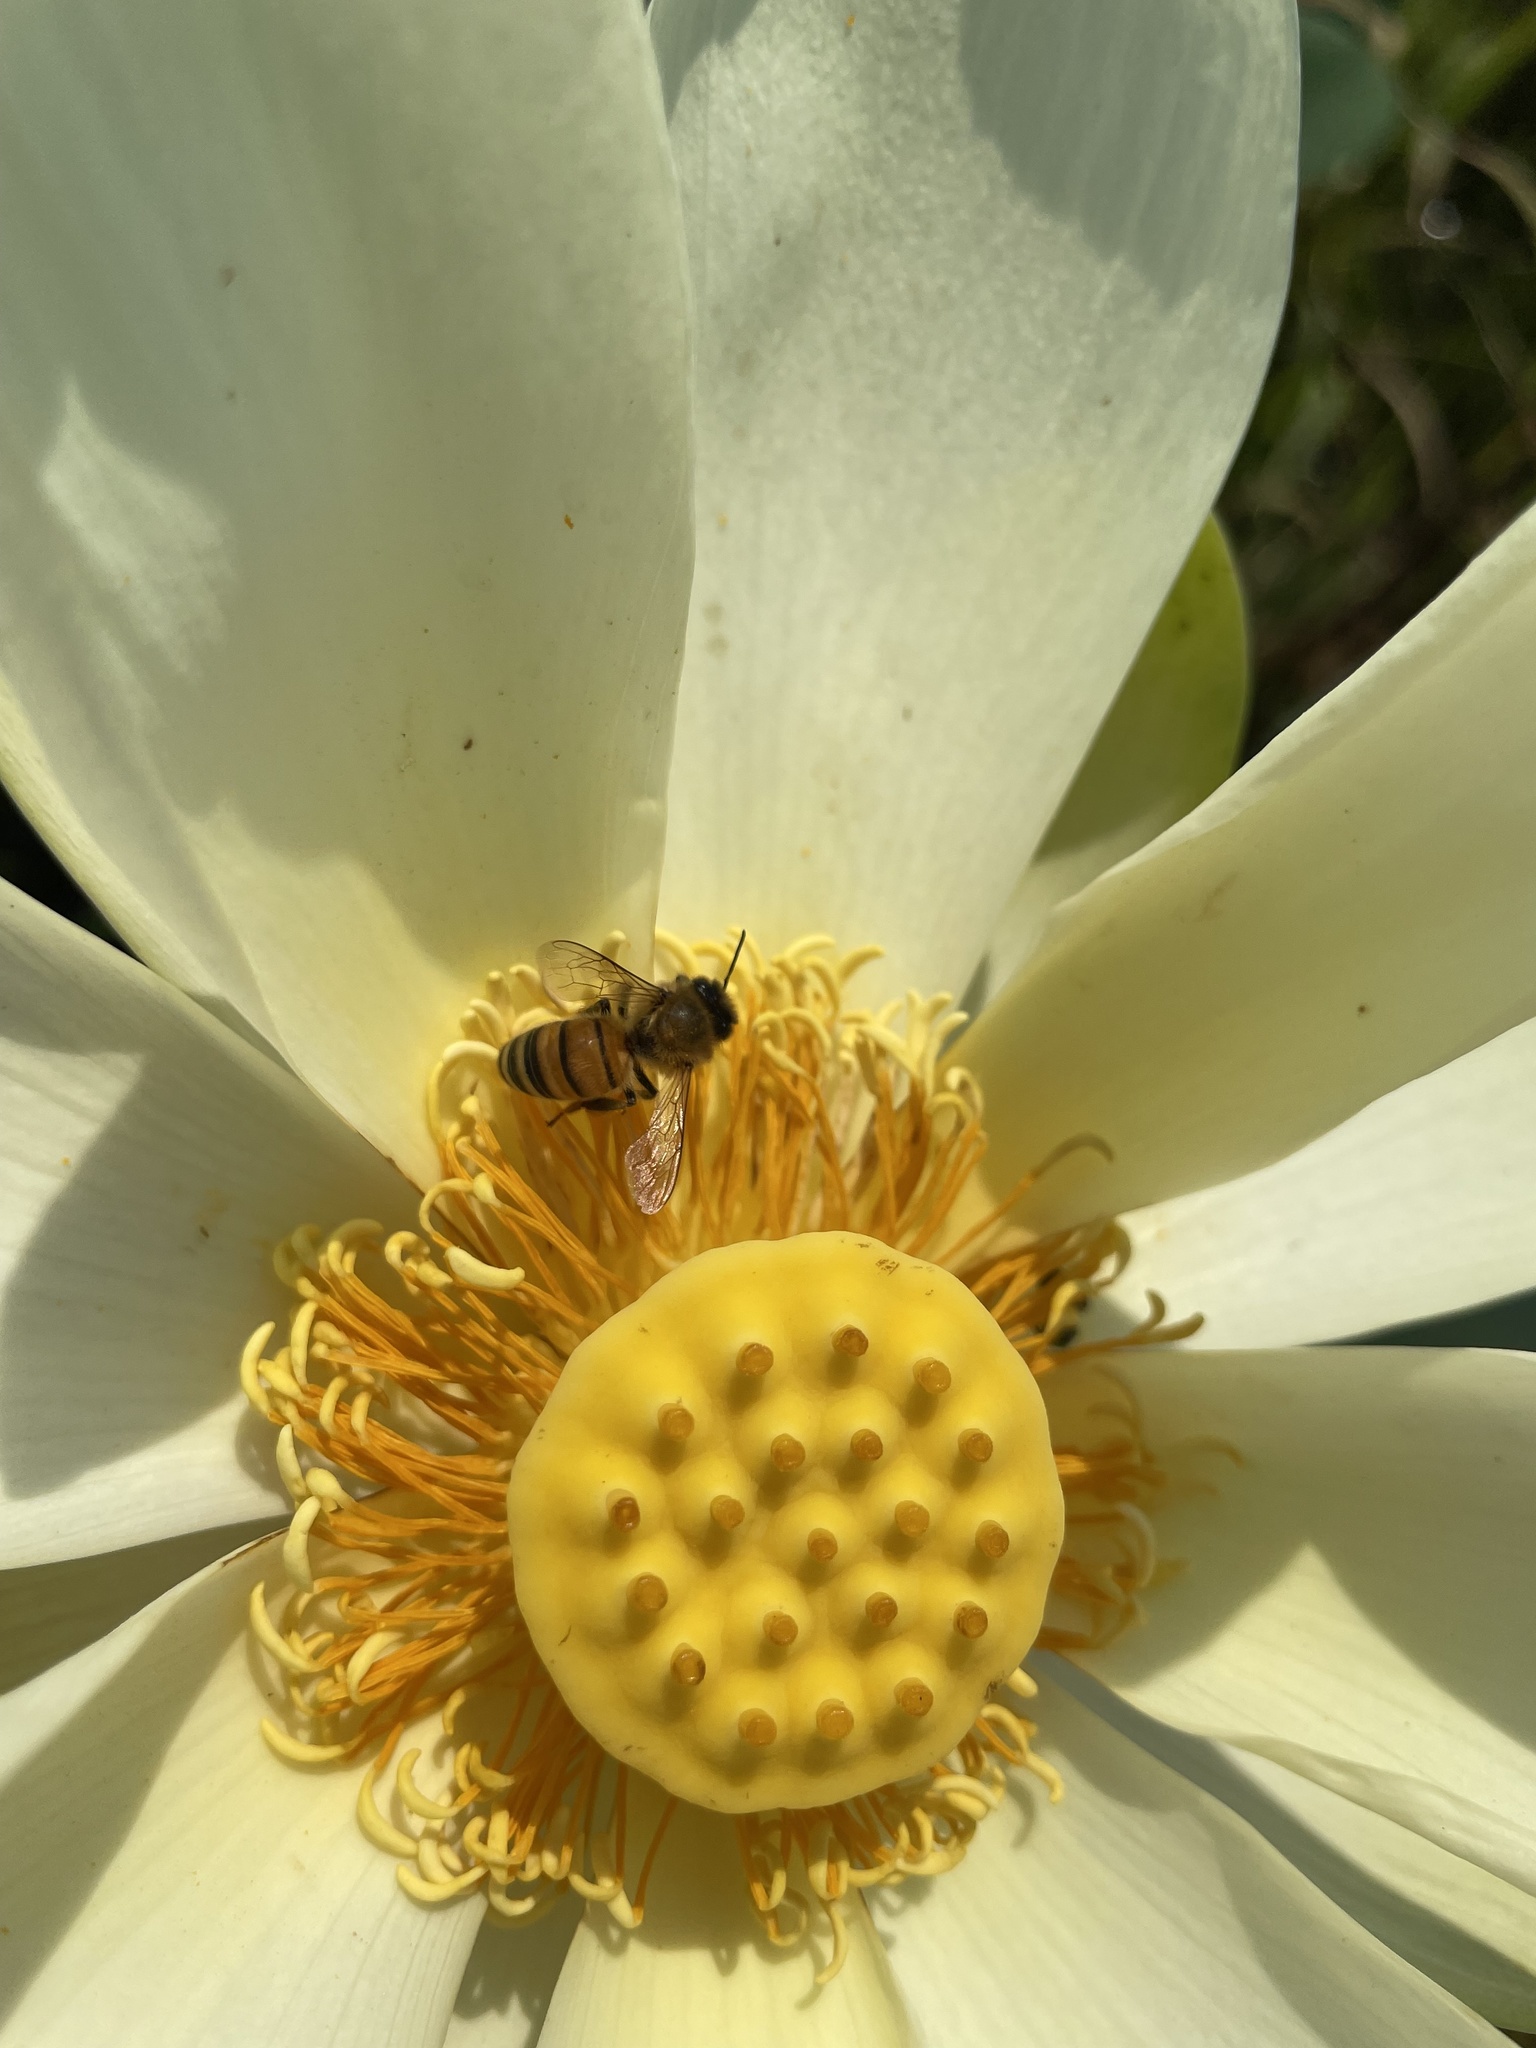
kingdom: Animalia
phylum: Arthropoda
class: Insecta
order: Hymenoptera
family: Apidae
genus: Apis
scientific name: Apis mellifera
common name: Honey bee
